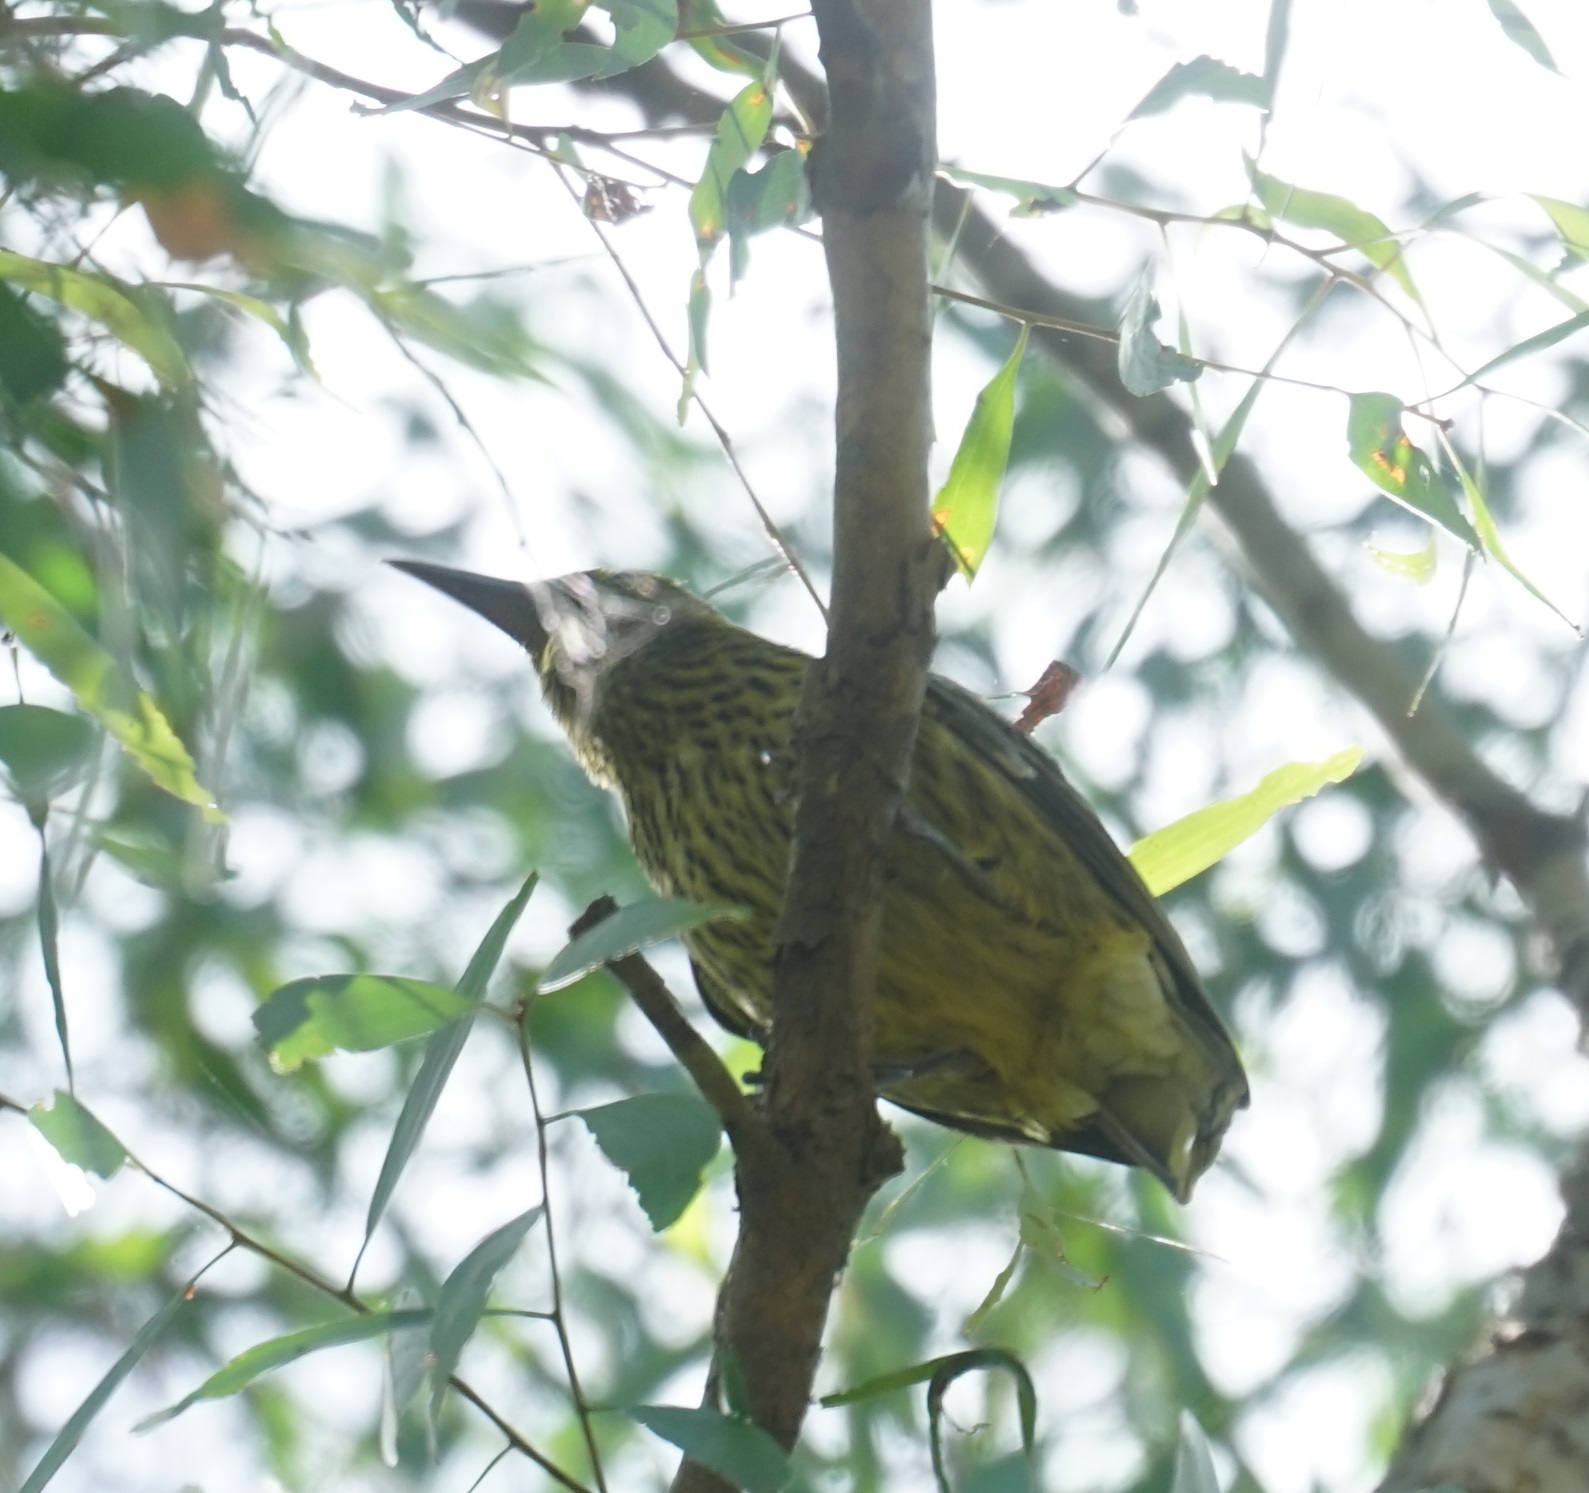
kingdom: Animalia
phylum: Chordata
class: Aves
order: Passeriformes
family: Oriolidae
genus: Oriolus
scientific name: Oriolus flavocinctus
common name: Green oriole
